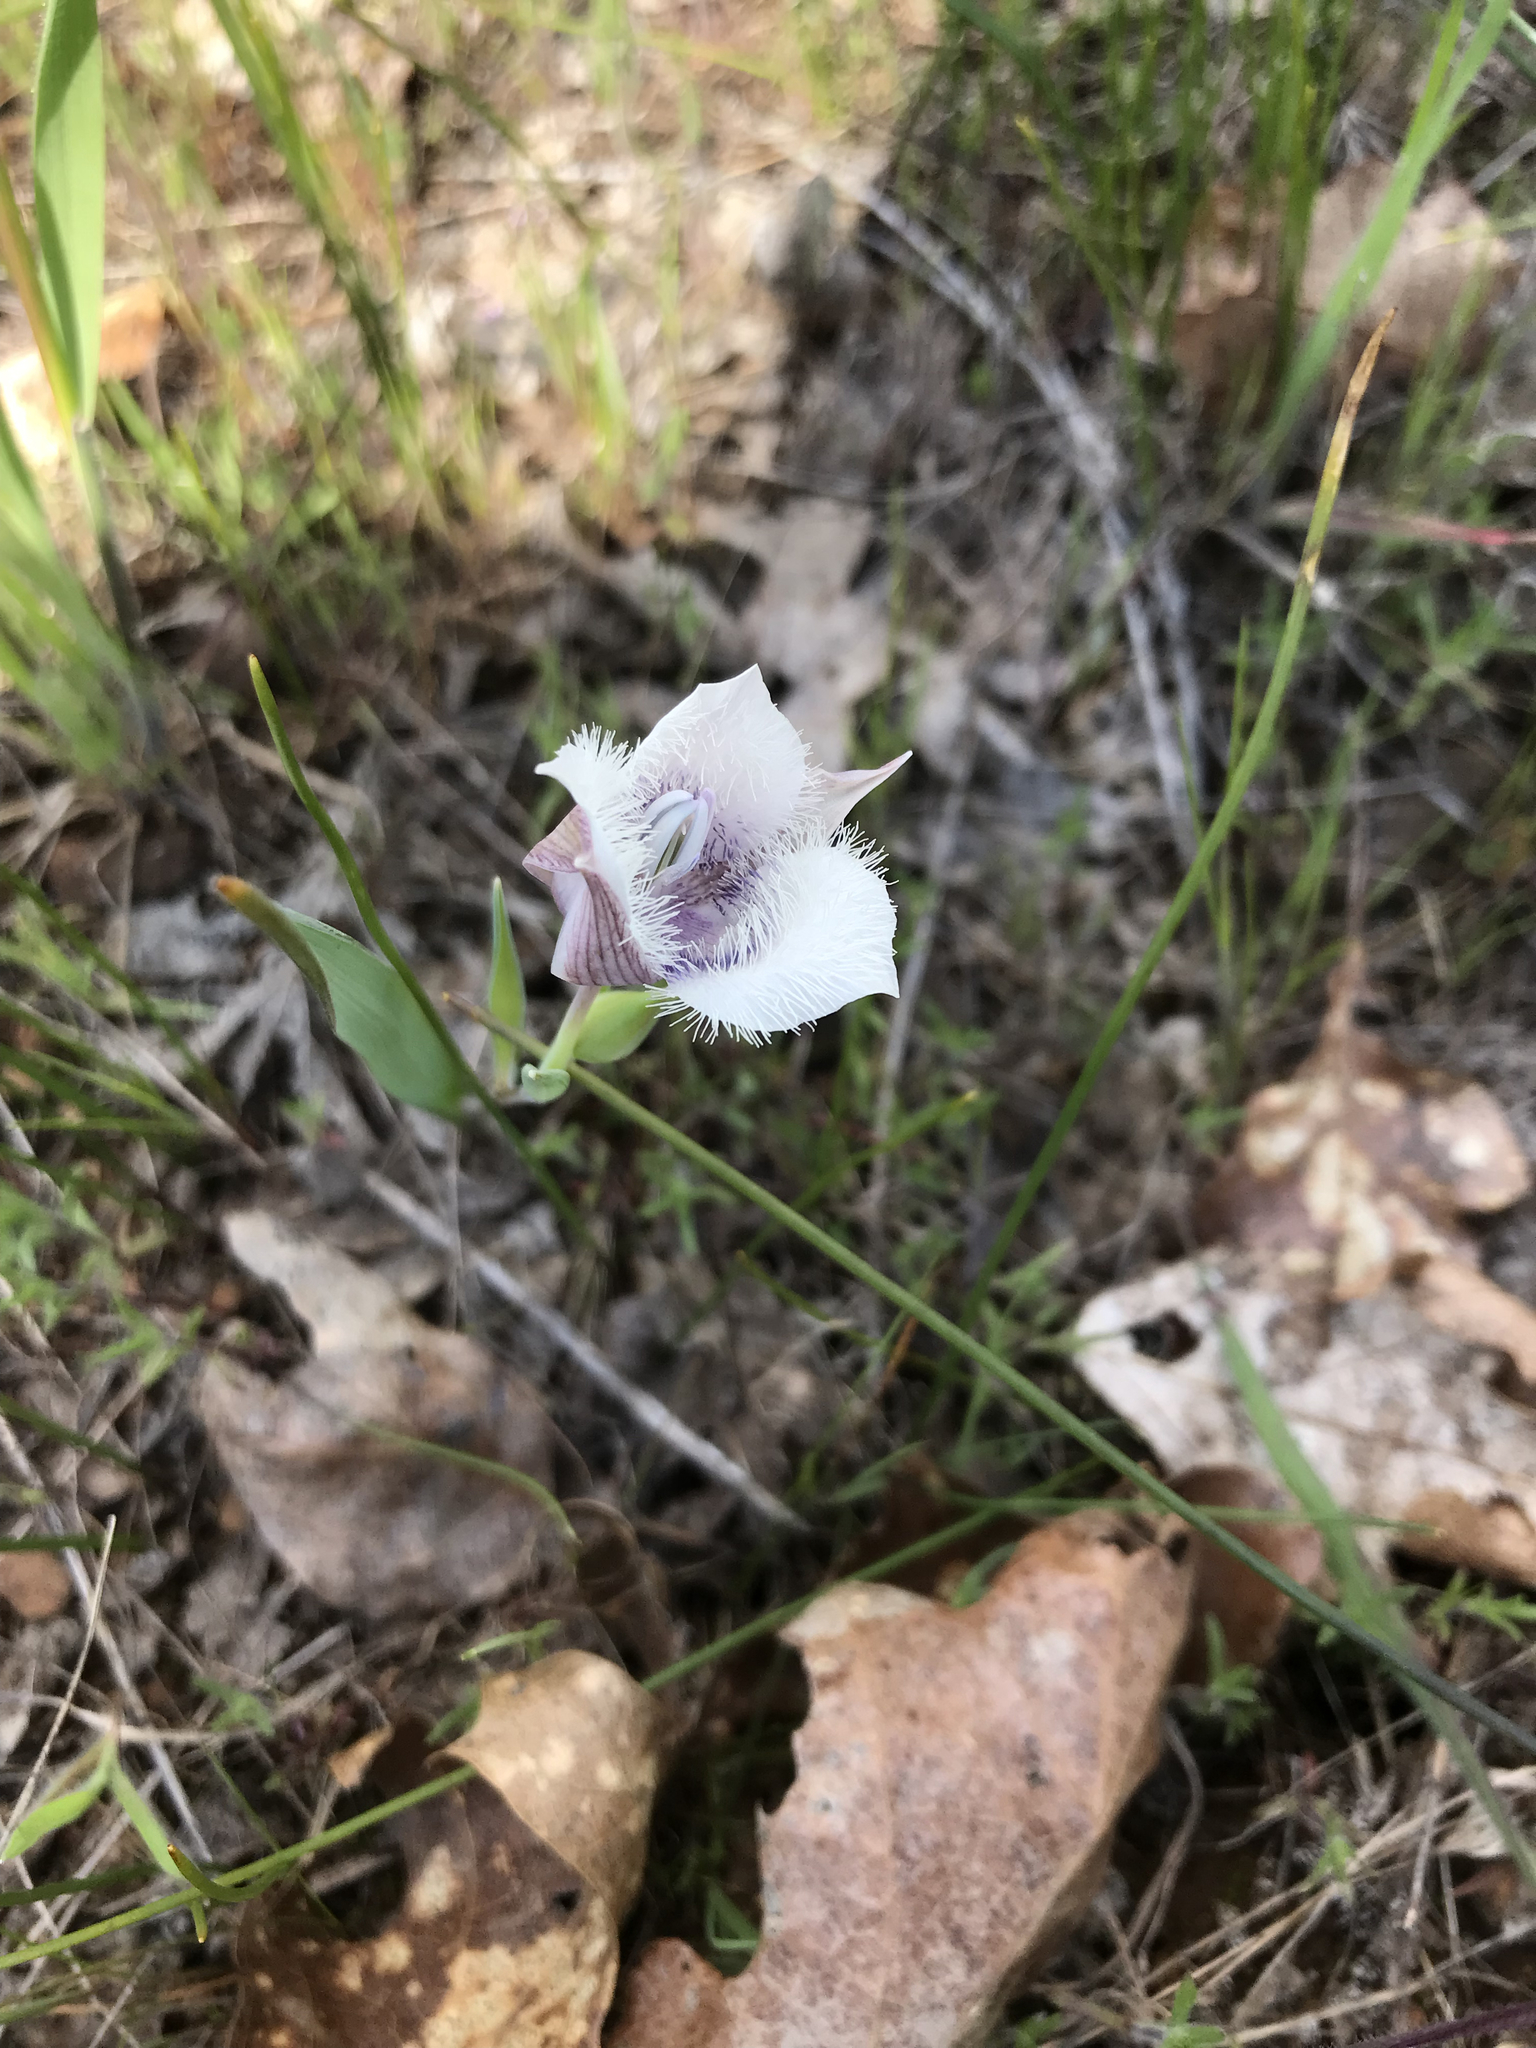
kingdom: Plantae
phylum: Tracheophyta
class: Liliopsida
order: Liliales
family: Liliaceae
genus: Calochortus
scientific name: Calochortus tolmiei
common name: Pussy-ears
